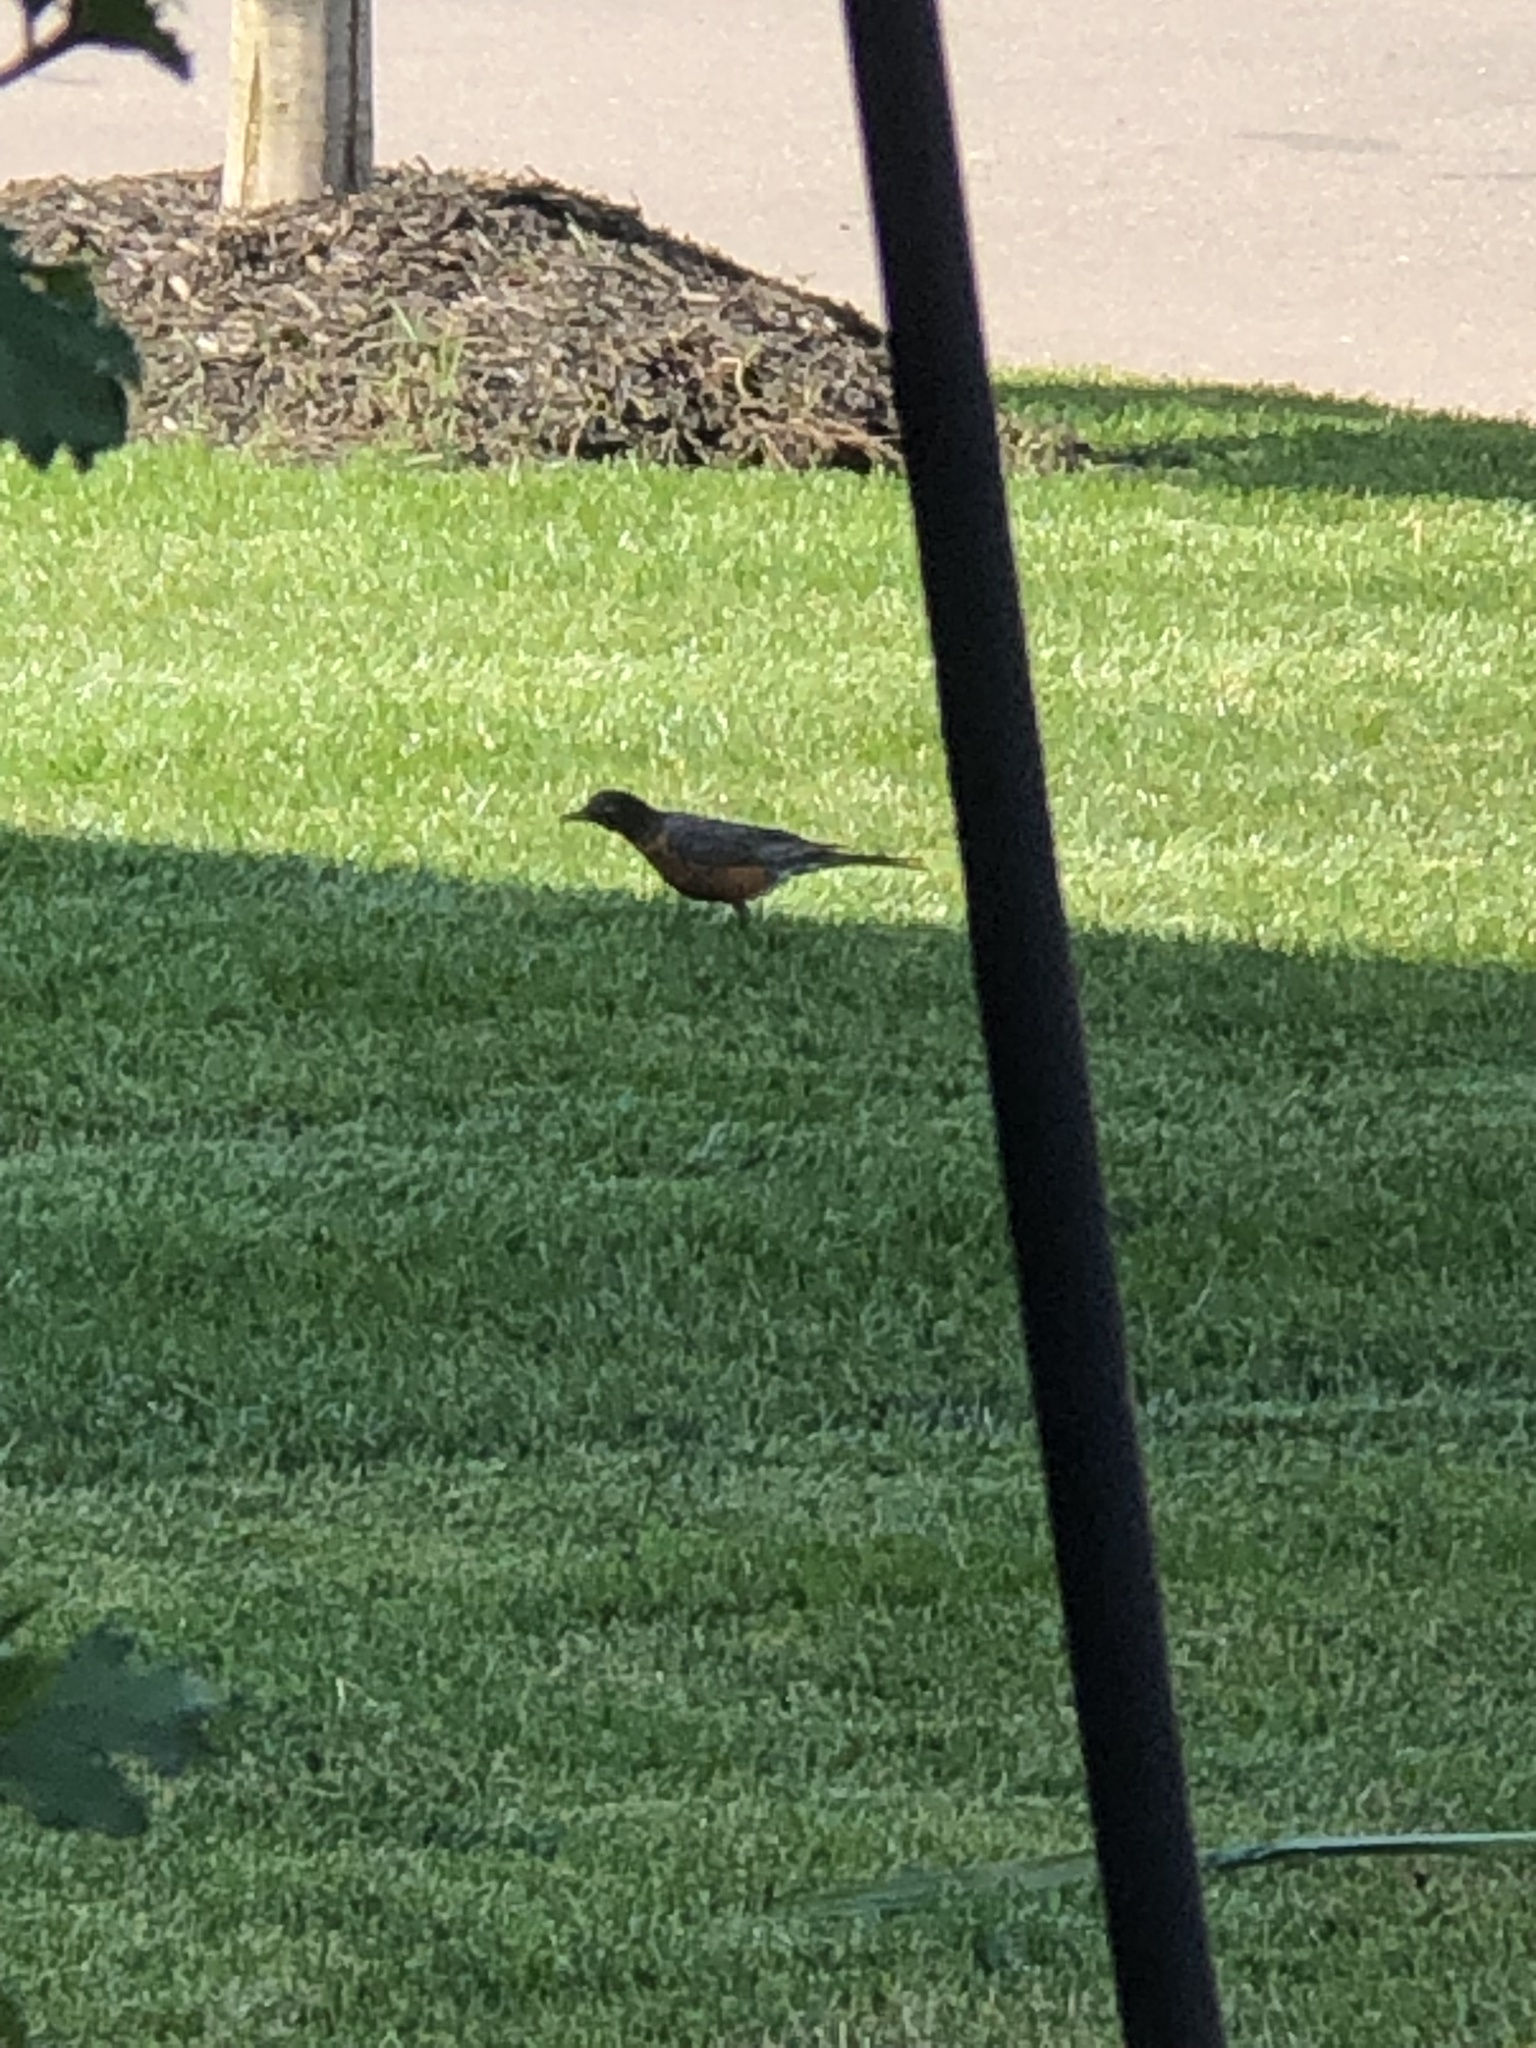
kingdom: Animalia
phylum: Chordata
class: Aves
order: Passeriformes
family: Turdidae
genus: Turdus
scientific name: Turdus migratorius
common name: American robin
